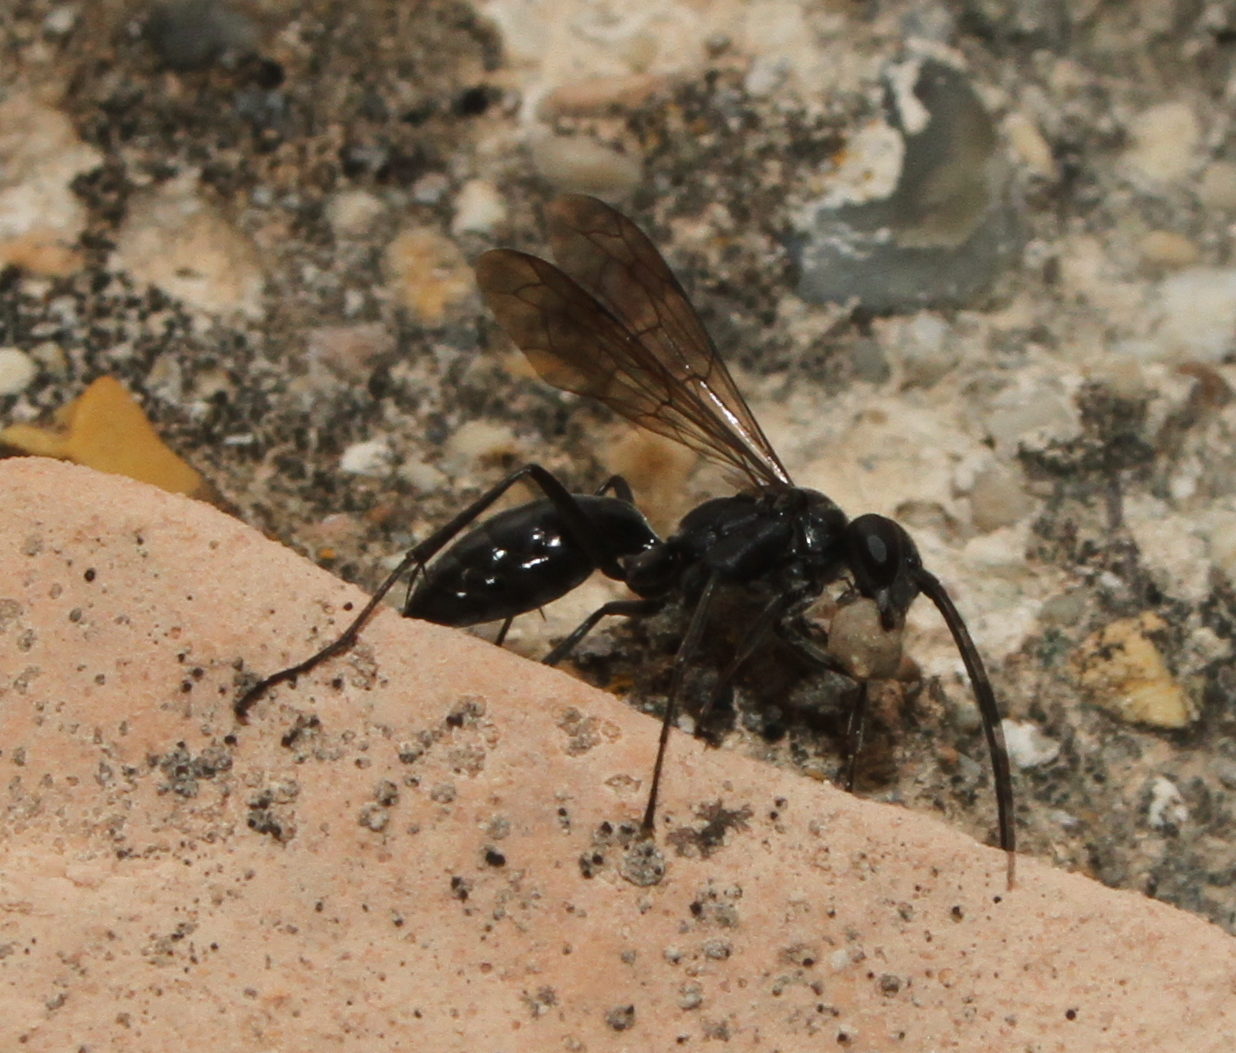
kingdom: Animalia
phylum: Arthropoda
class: Insecta
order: Hymenoptera
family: Pompilidae
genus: Auplopus
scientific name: Auplopus carbonarius
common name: Spider wasp
